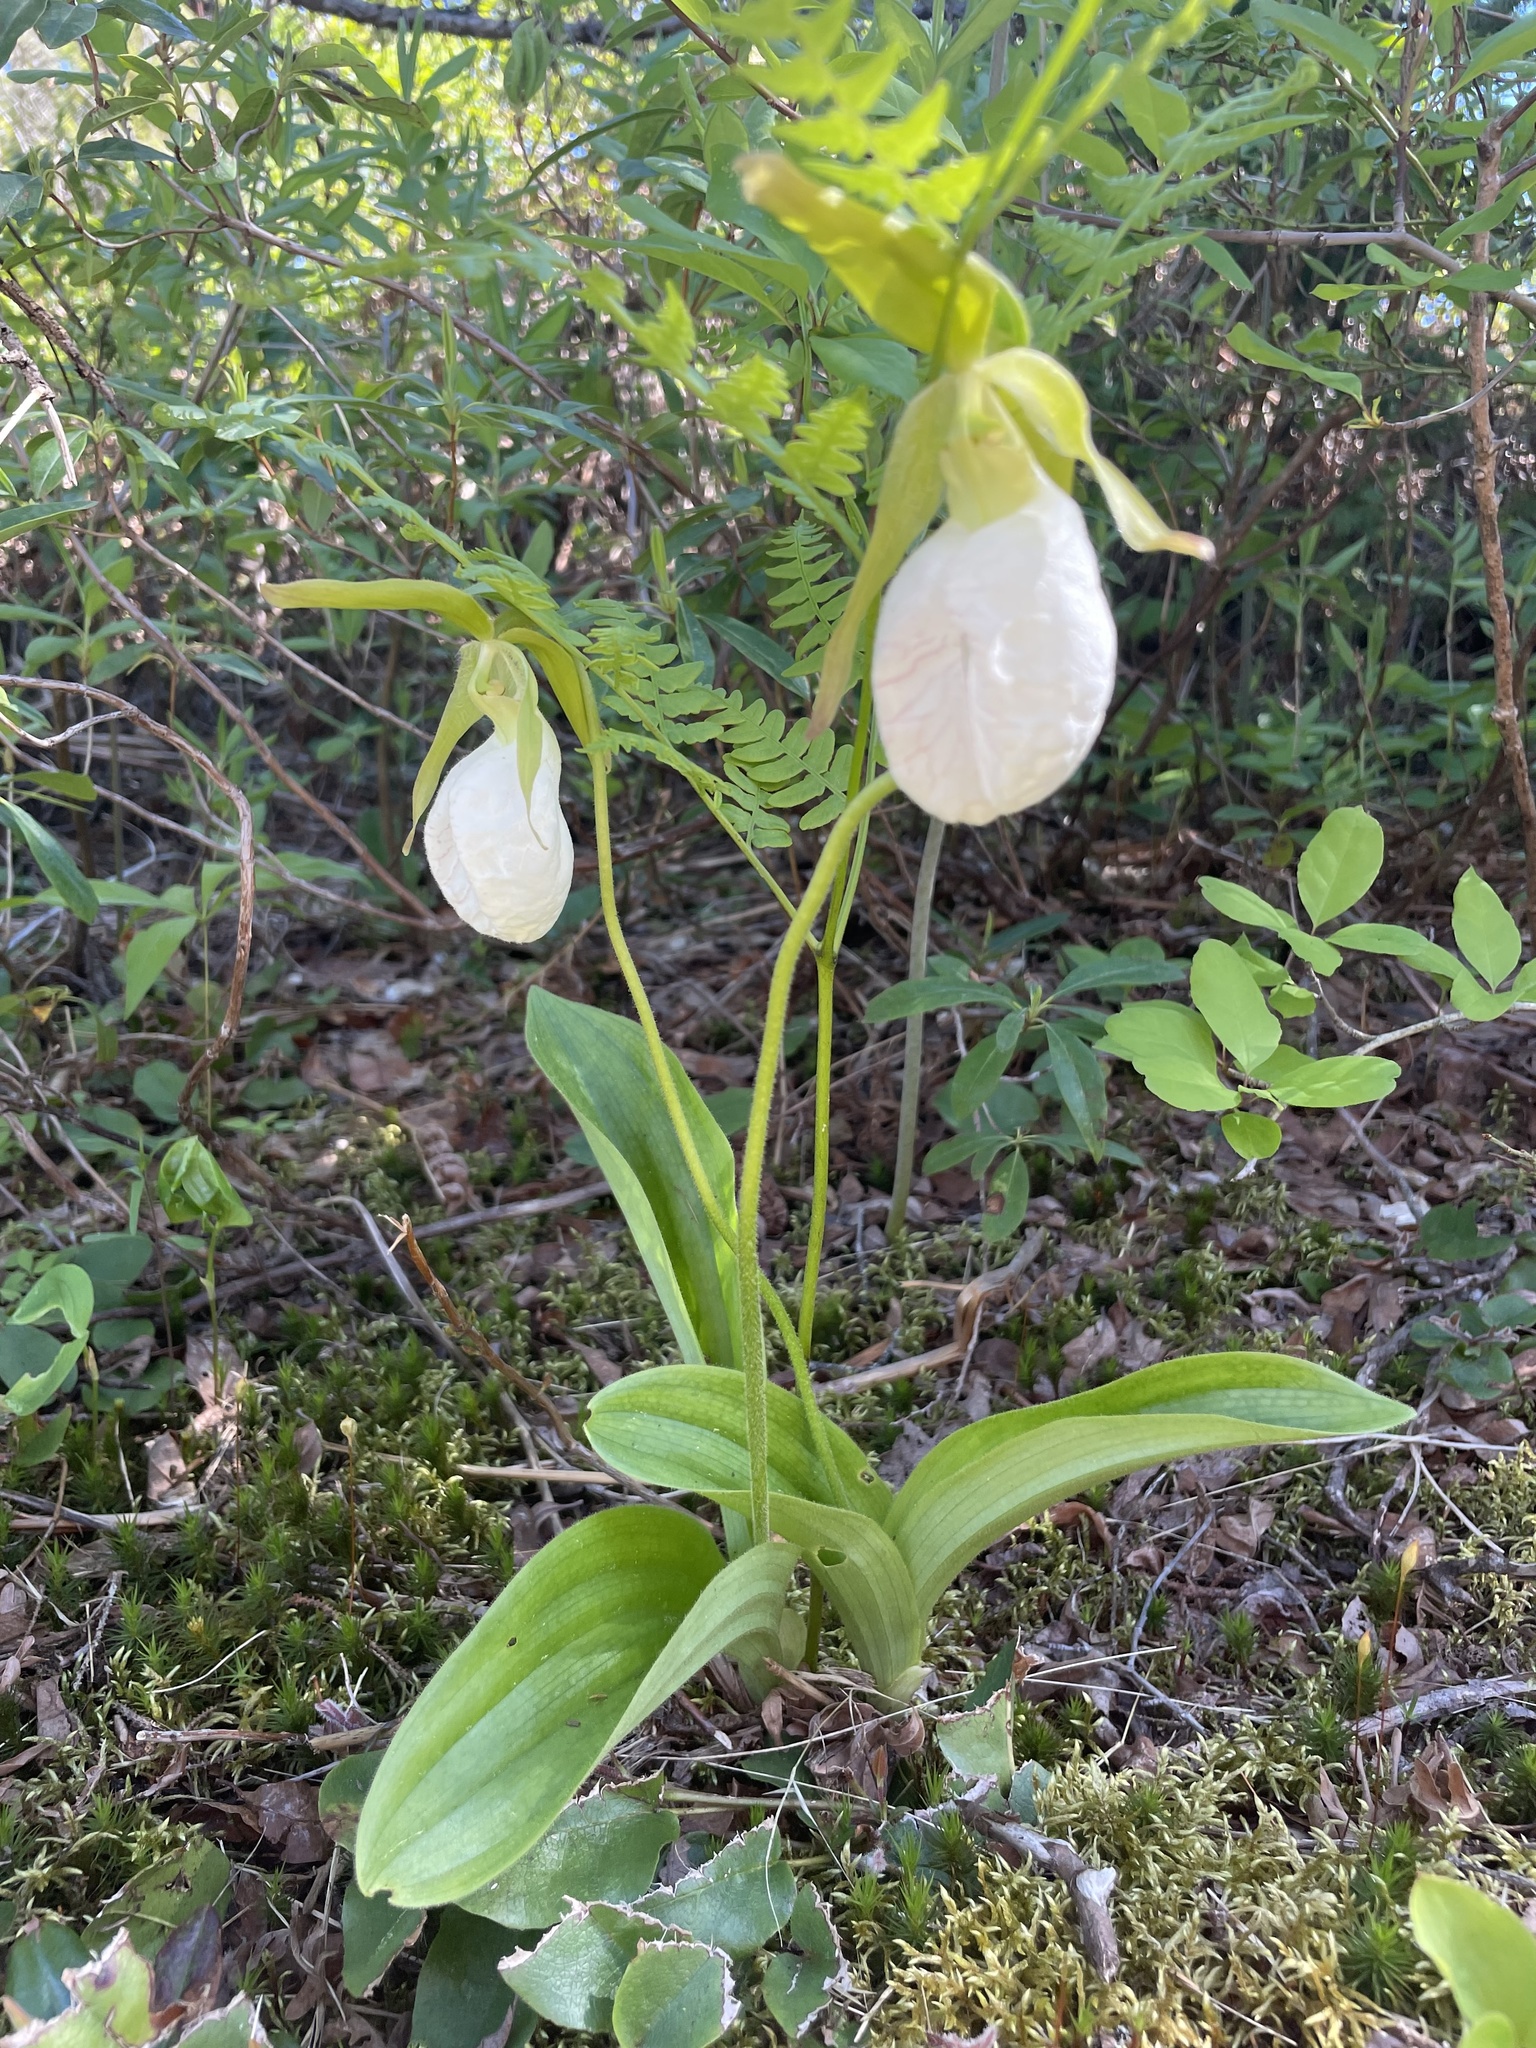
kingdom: Plantae
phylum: Tracheophyta
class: Liliopsida
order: Asparagales
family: Orchidaceae
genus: Cypripedium
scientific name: Cypripedium acaule
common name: Pink lady's-slipper
